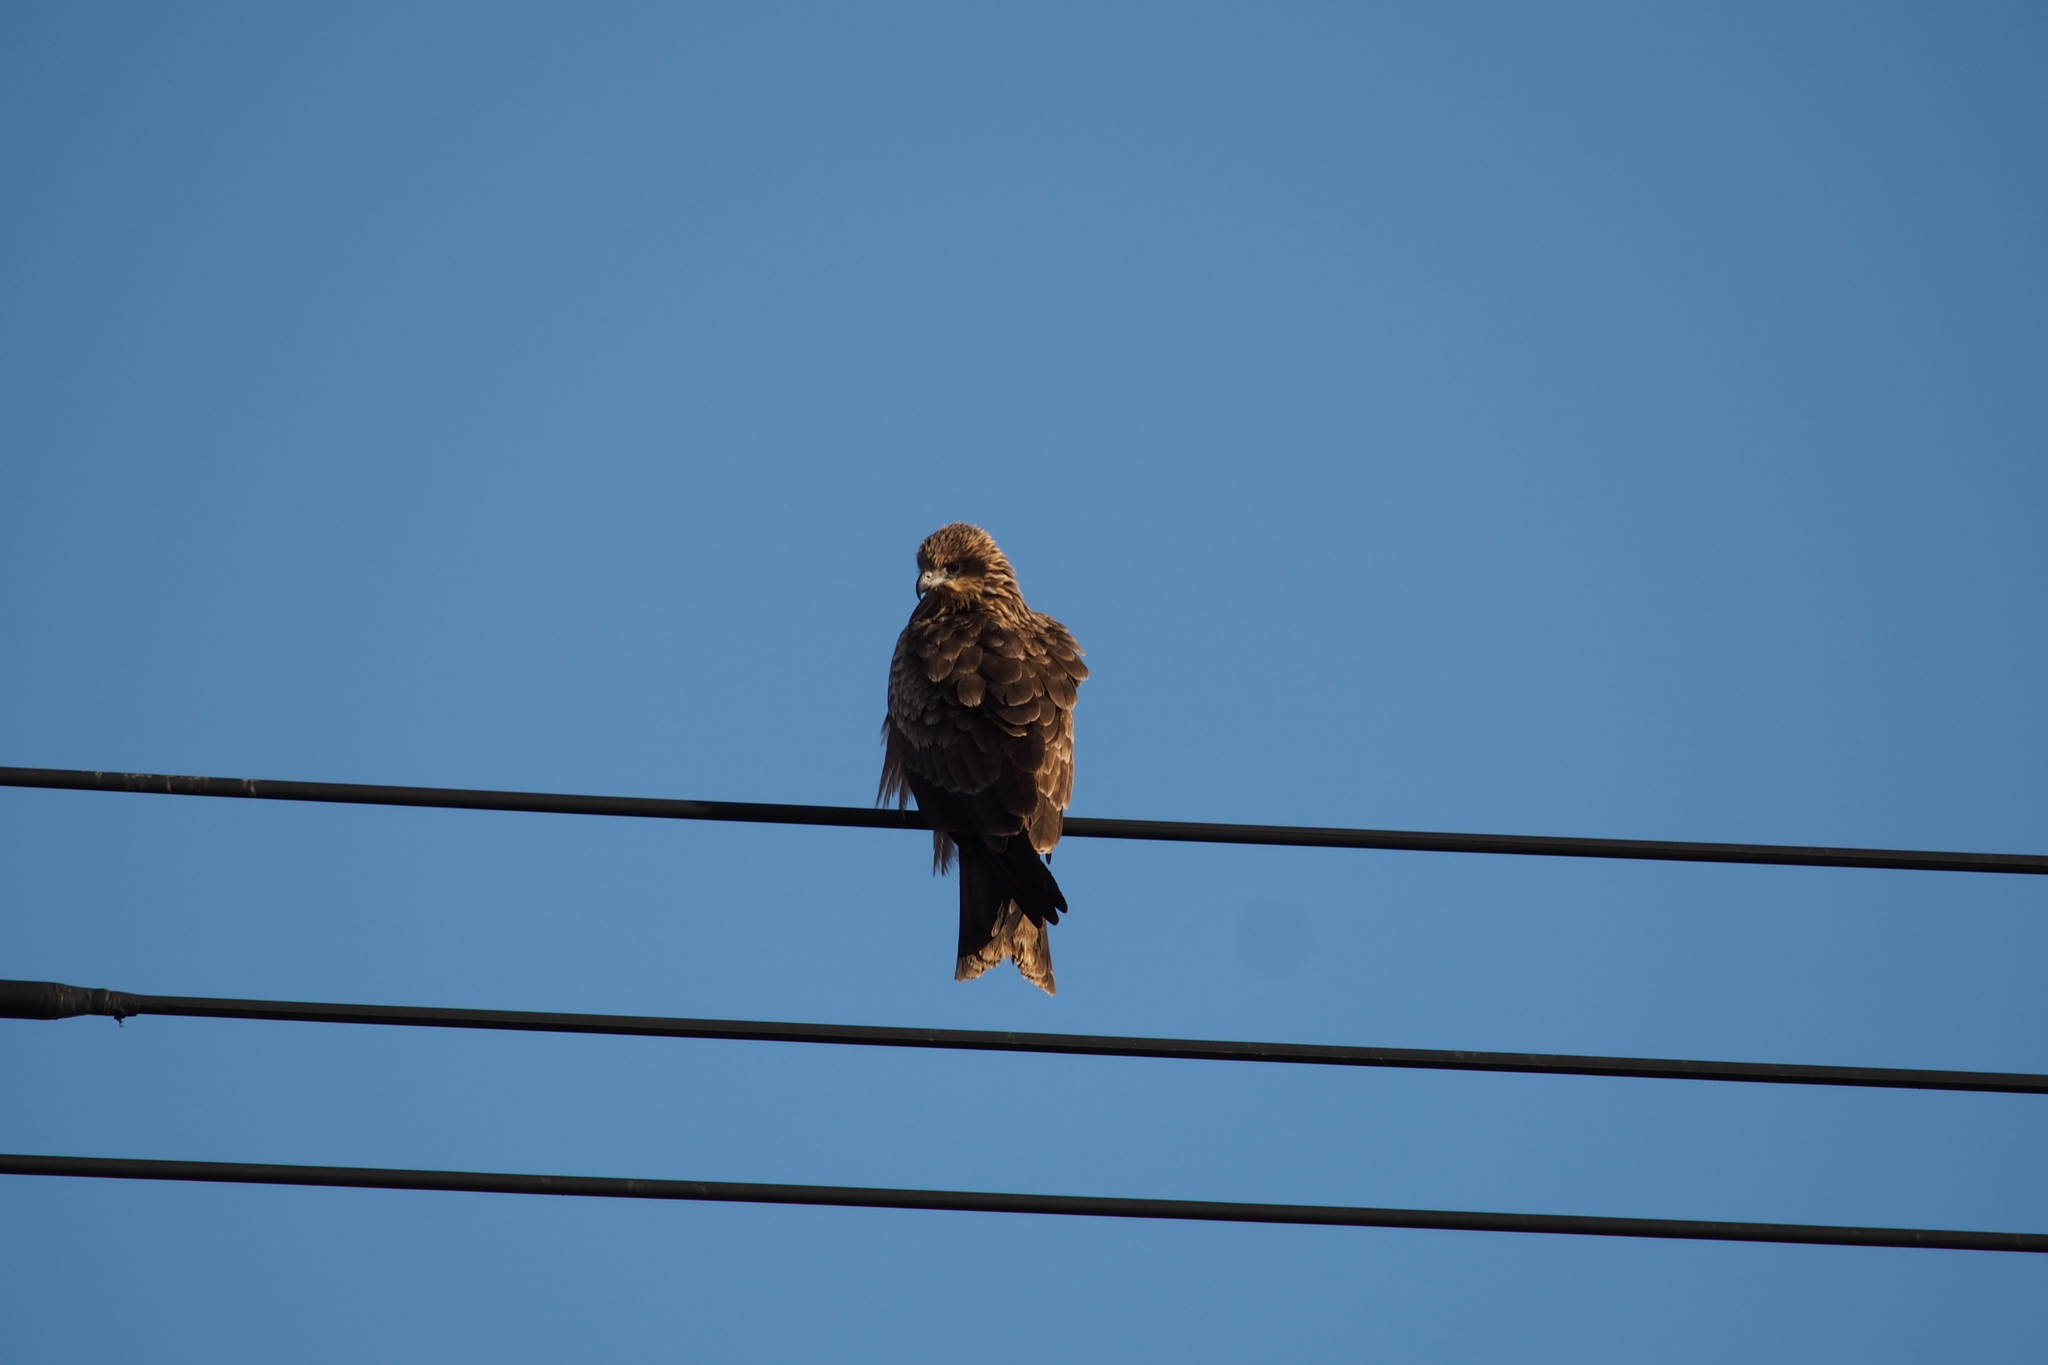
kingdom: Animalia
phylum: Chordata
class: Aves
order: Accipitriformes
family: Accipitridae
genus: Milvus
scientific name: Milvus migrans
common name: Black kite
